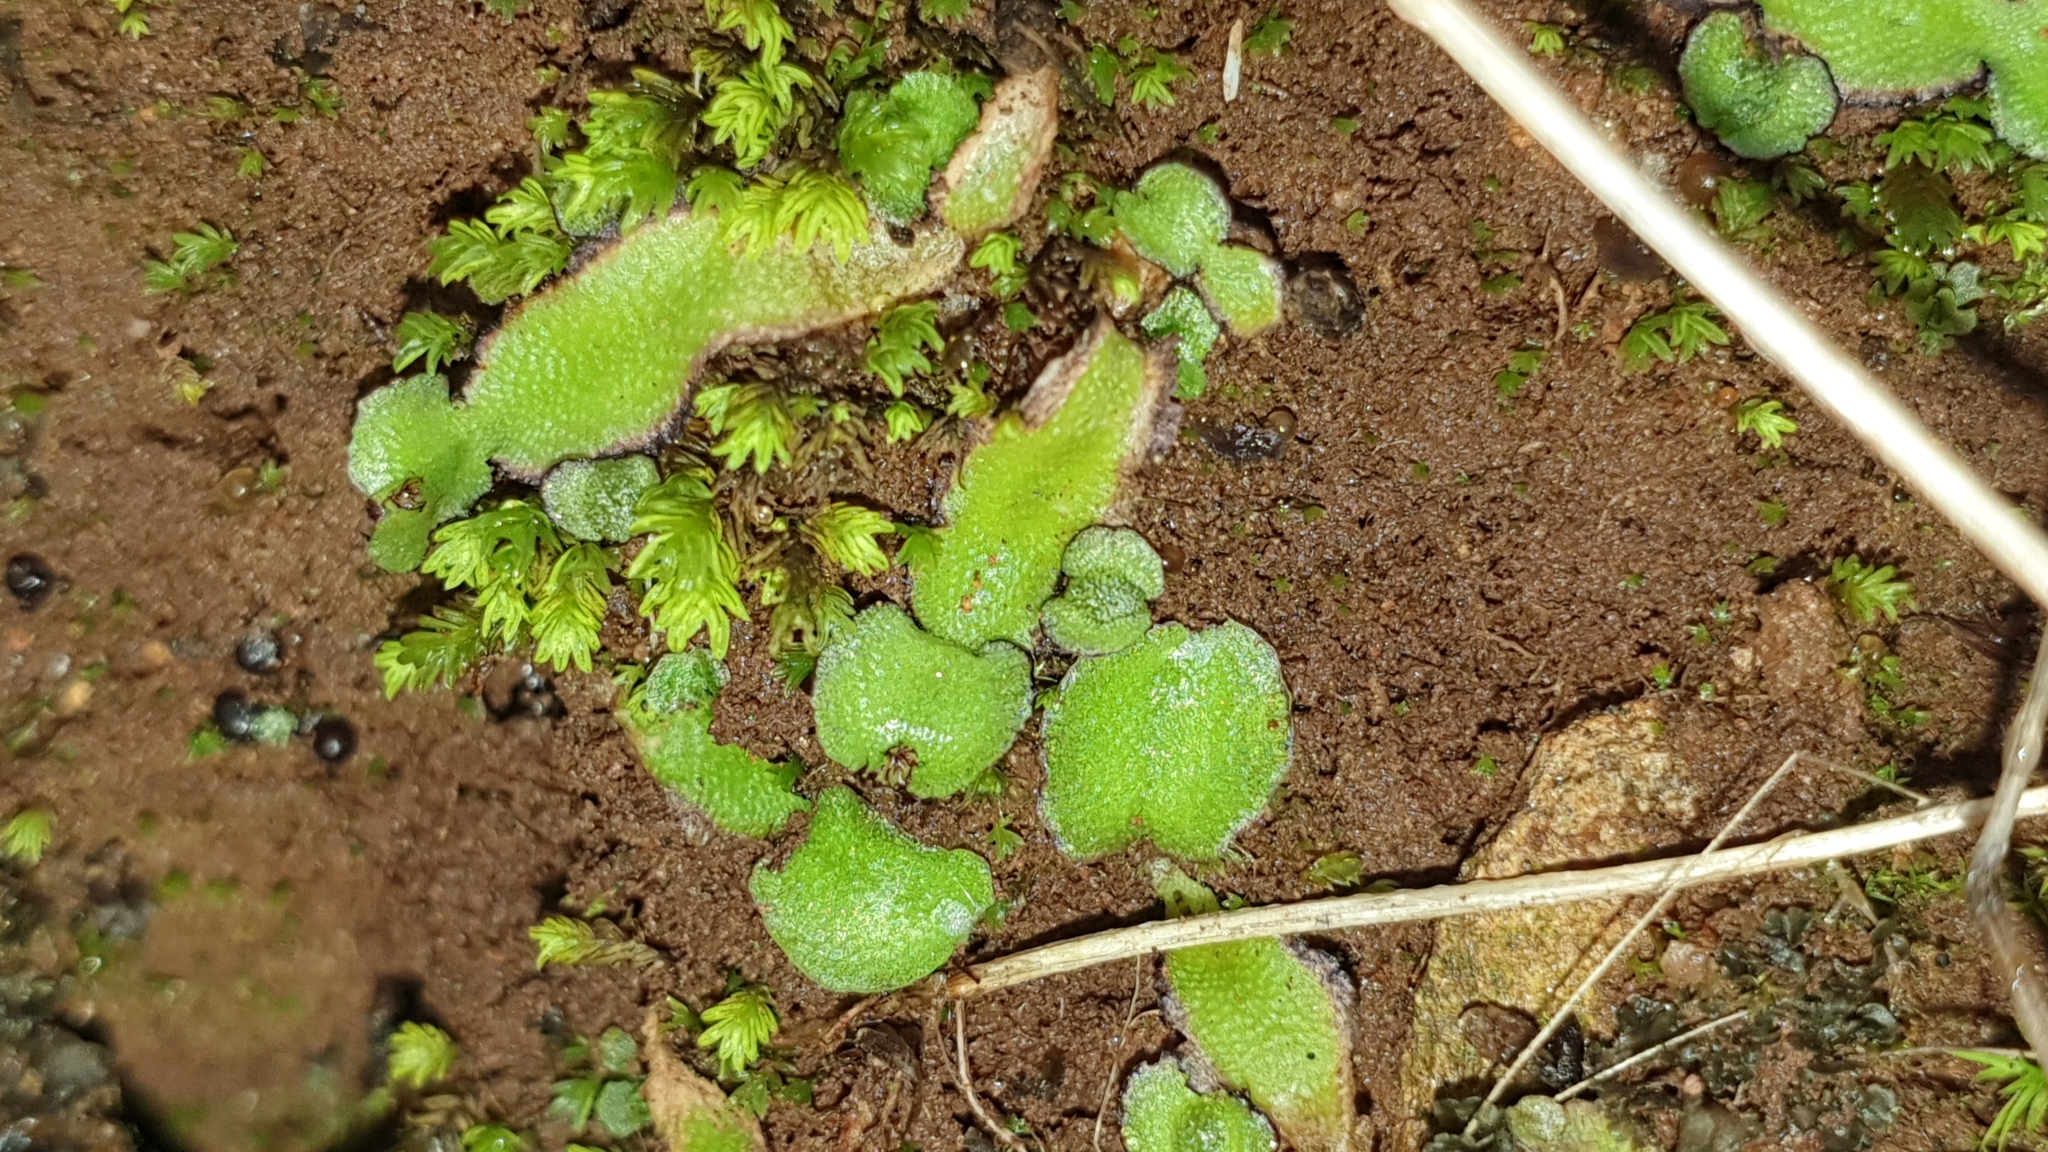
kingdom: Plantae
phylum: Marchantiophyta
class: Marchantiopsida
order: Marchantiales
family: Aytoniaceae
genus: Asterella
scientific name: Asterella drummondii
